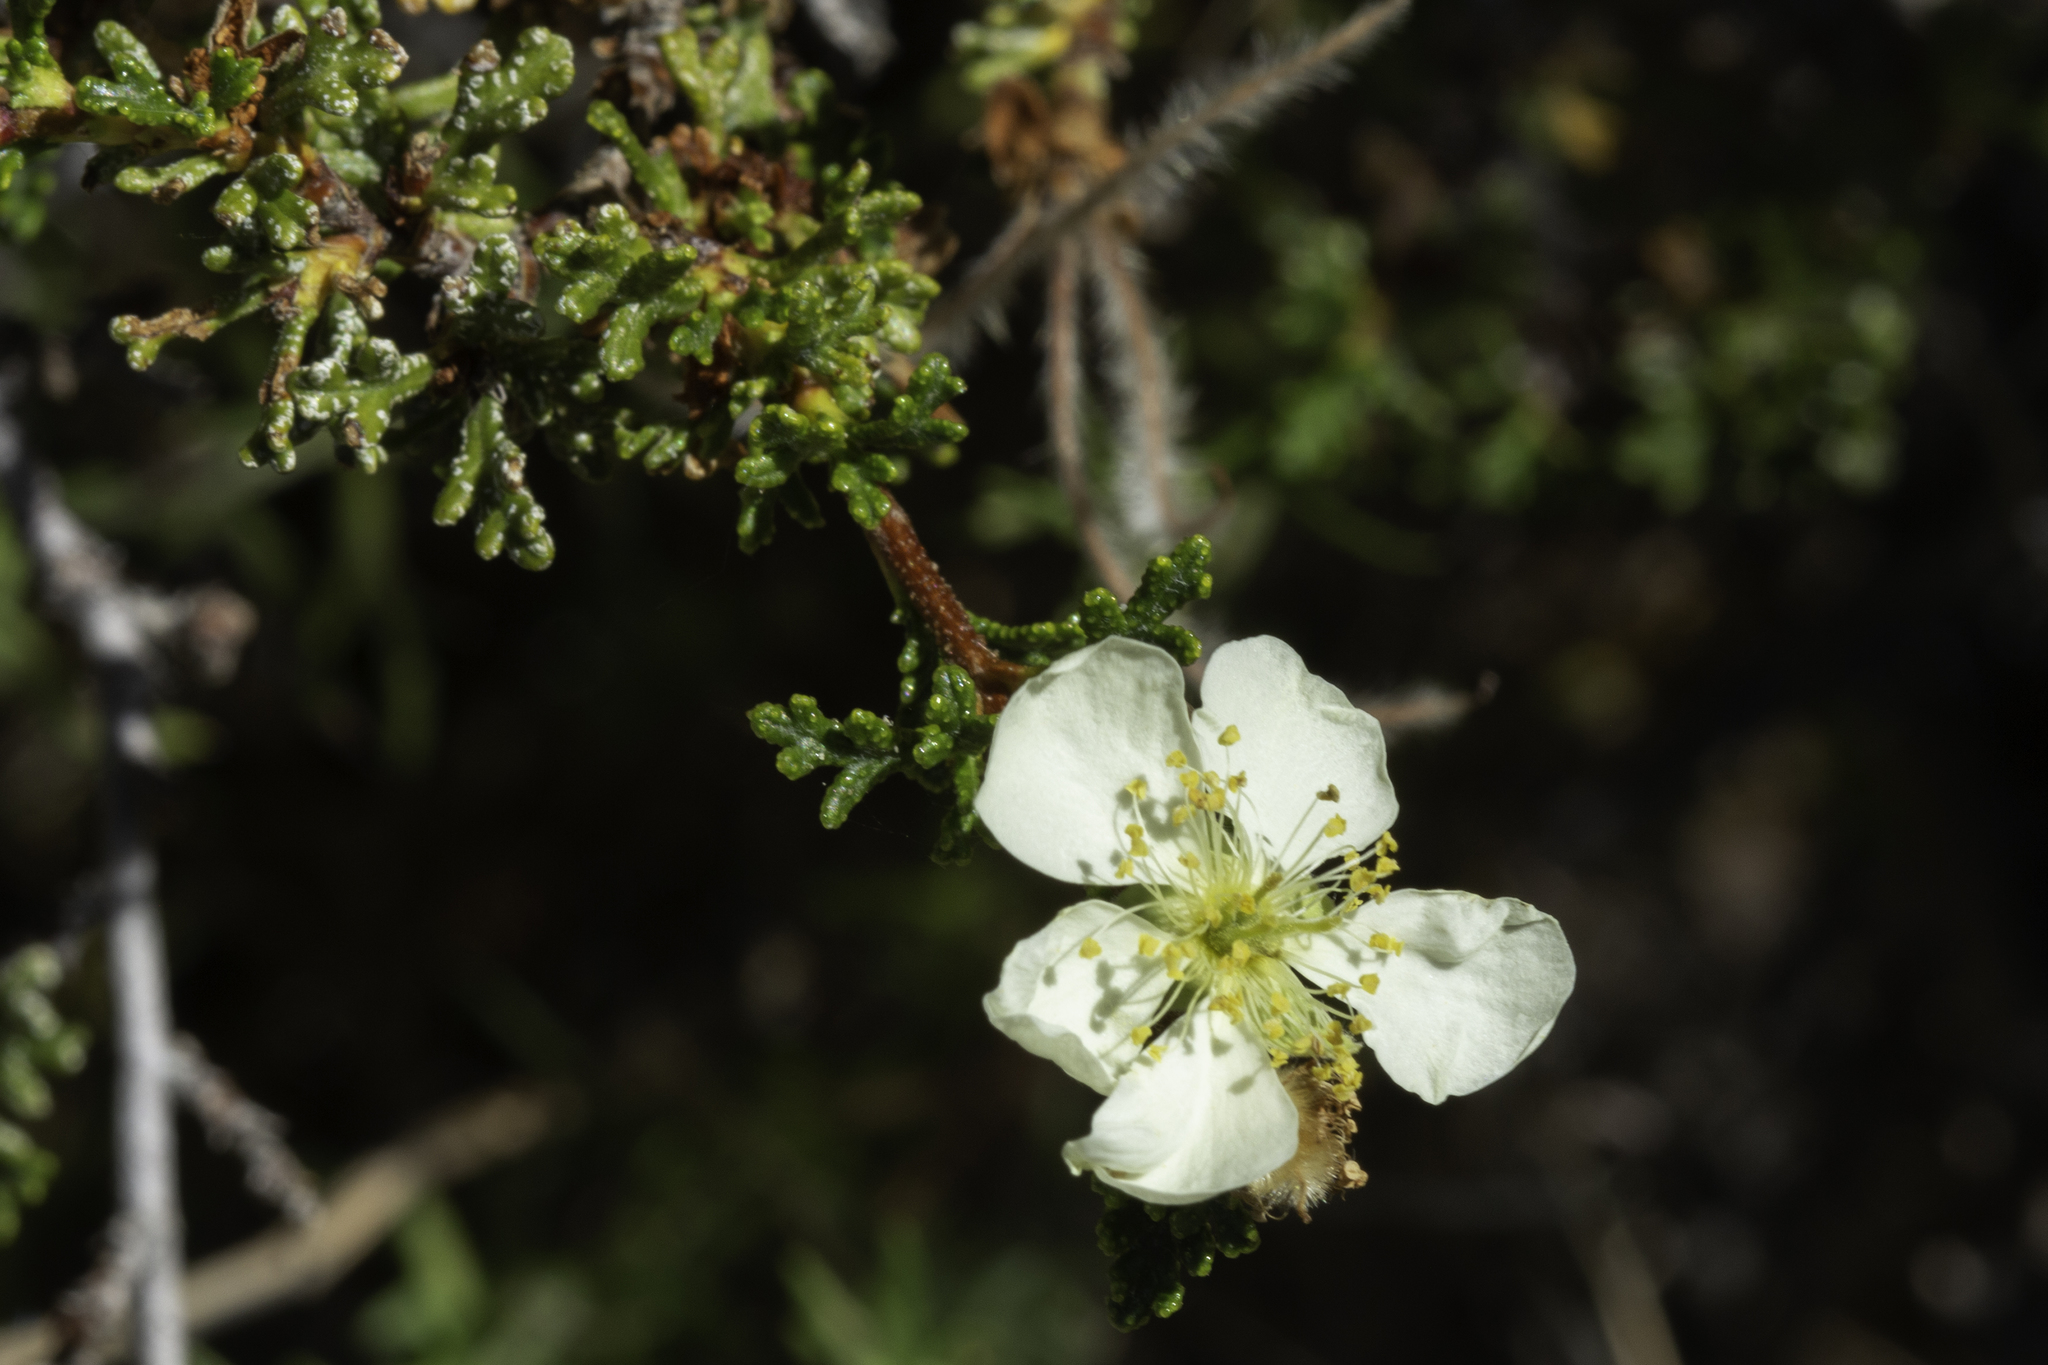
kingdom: Plantae
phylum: Tracheophyta
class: Magnoliopsida
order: Rosales
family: Rosaceae
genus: Purshia
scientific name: Purshia stansburiana
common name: Stansbury's cliffrose
